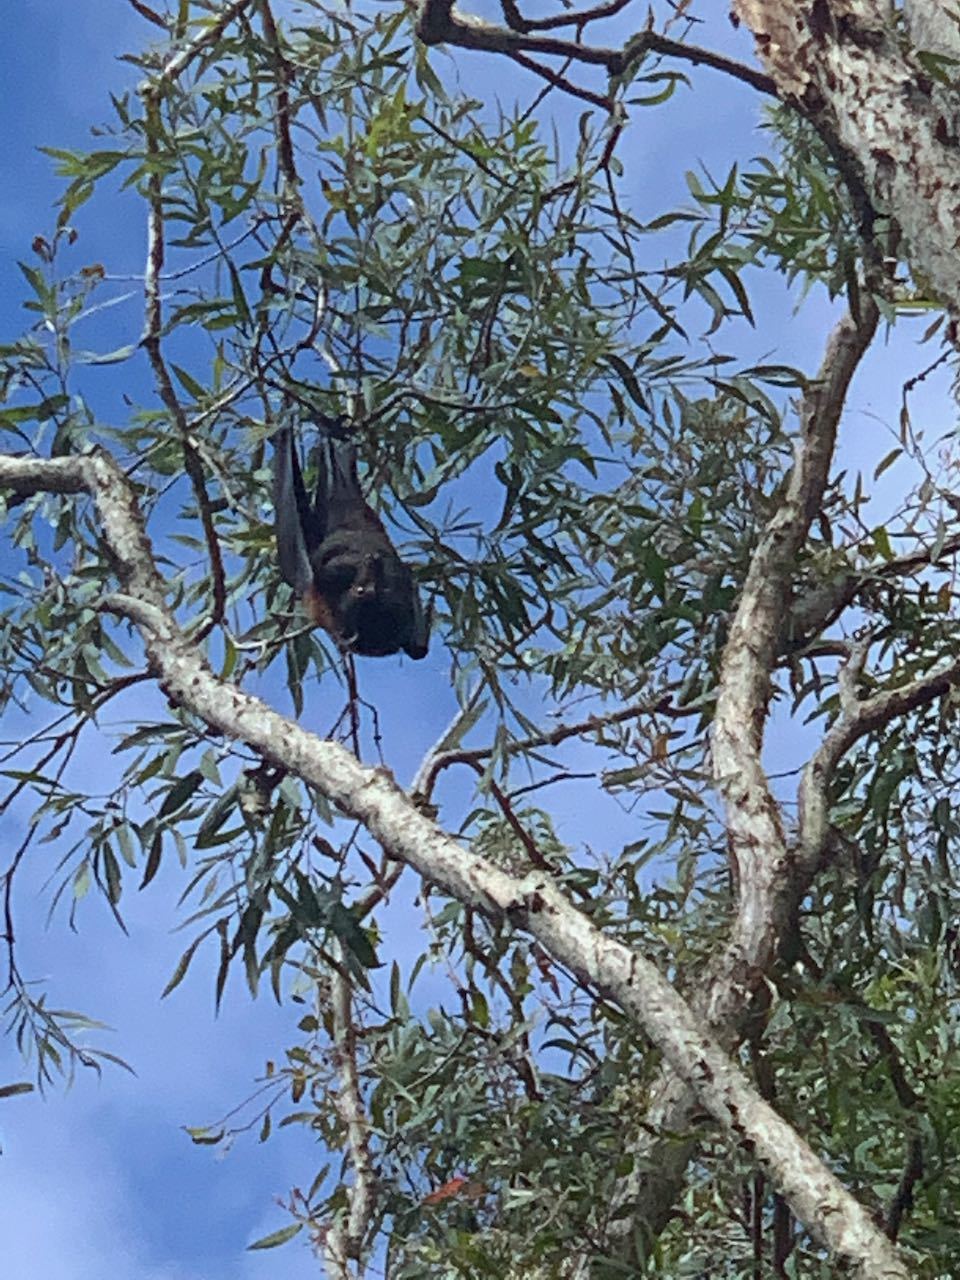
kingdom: Animalia
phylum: Chordata
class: Mammalia
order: Chiroptera
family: Pteropodidae
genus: Pteropus
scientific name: Pteropus alecto
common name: Black flying fox
